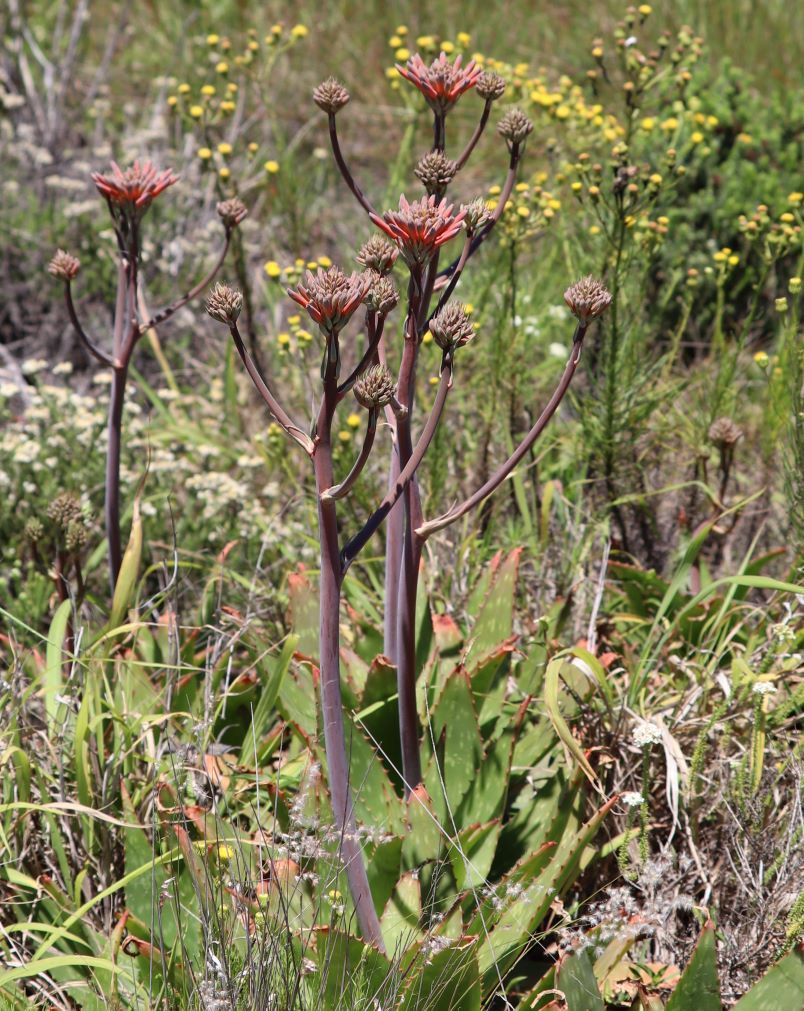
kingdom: Plantae
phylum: Tracheophyta
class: Liliopsida
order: Asparagales
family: Asphodelaceae
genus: Aloe
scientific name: Aloe maculata
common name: Broadleaf aloe
